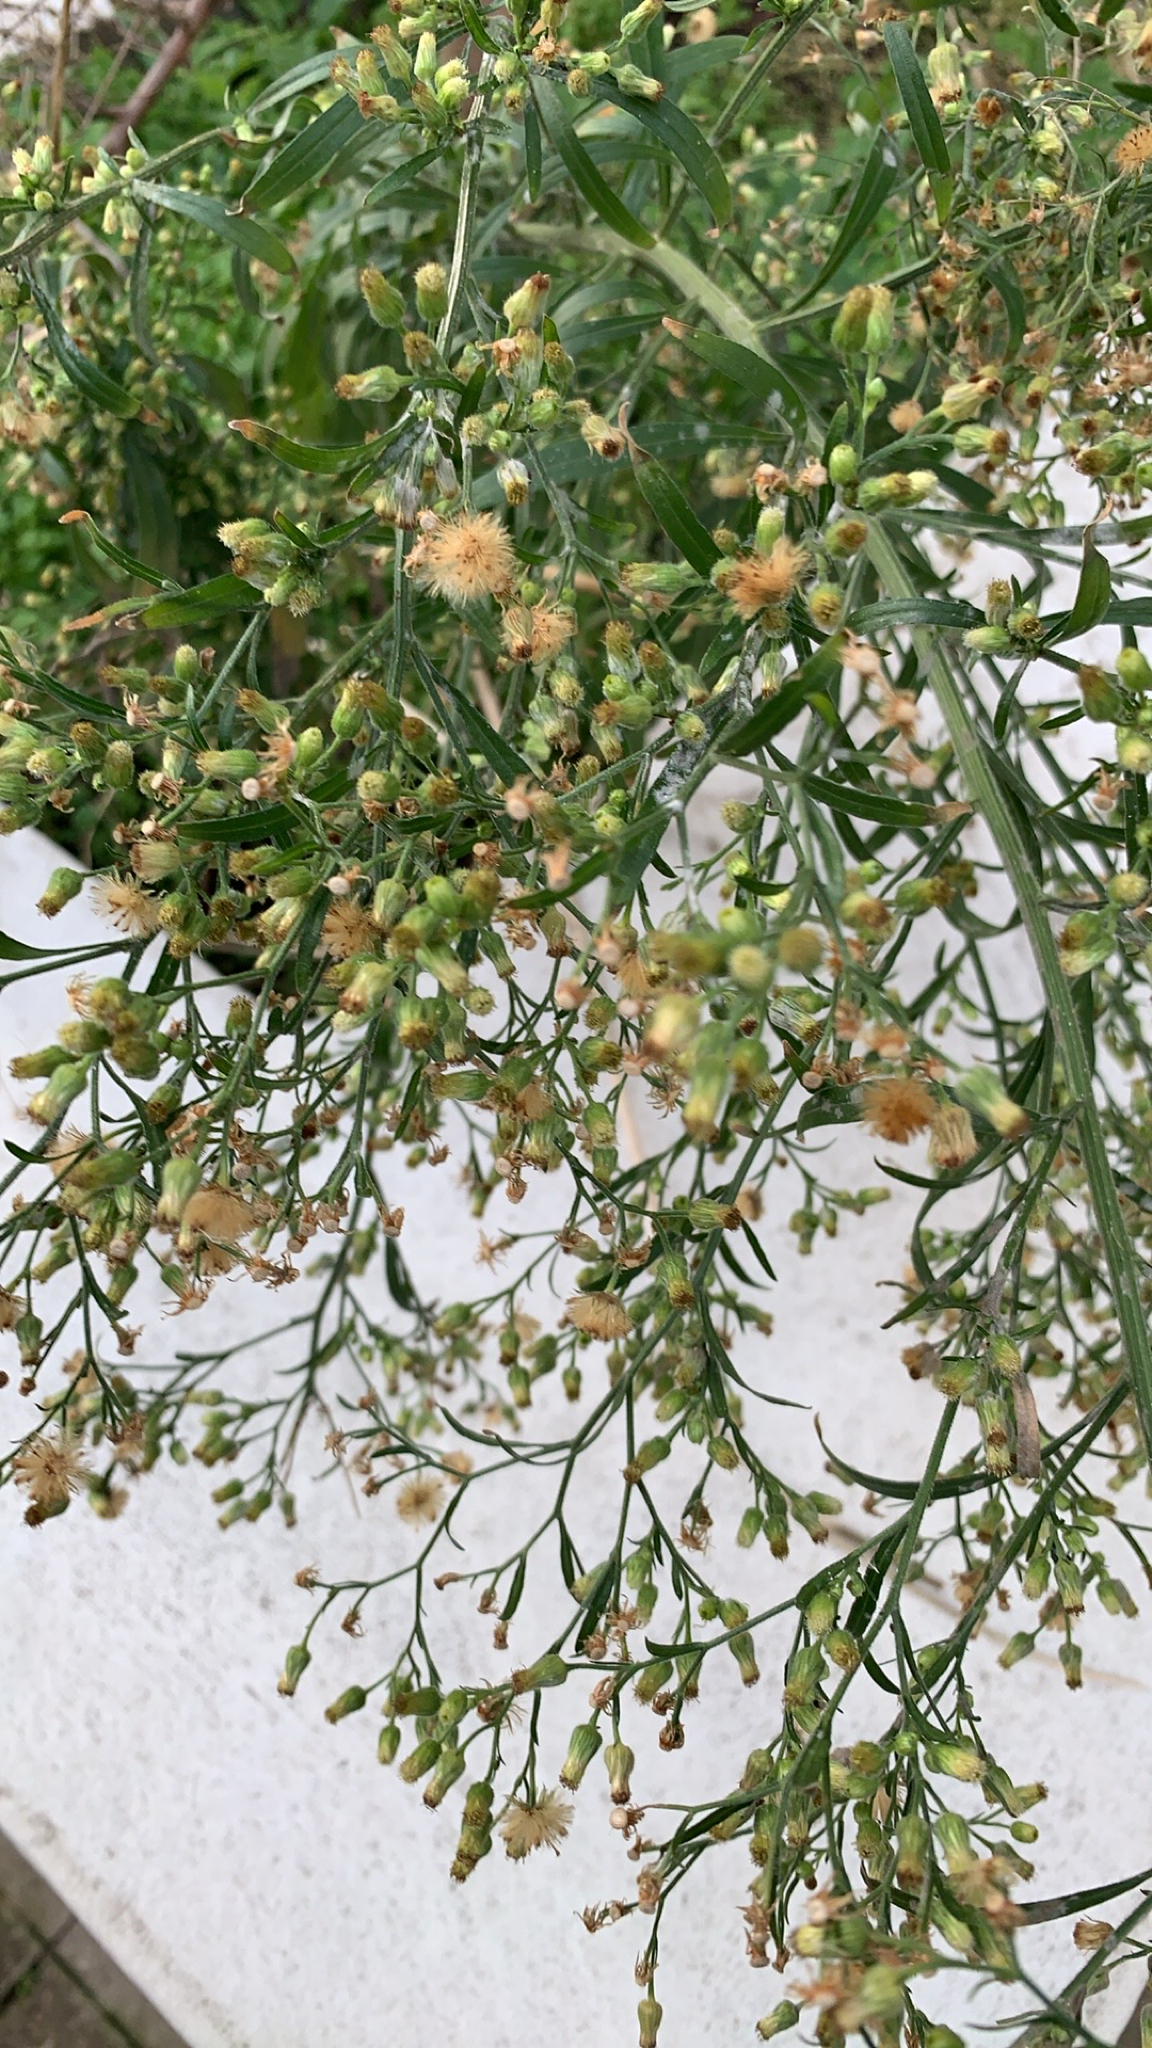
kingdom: Plantae
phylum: Tracheophyta
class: Magnoliopsida
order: Asterales
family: Asteraceae
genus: Erigeron
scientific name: Erigeron sumatrensis
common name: Daisy
